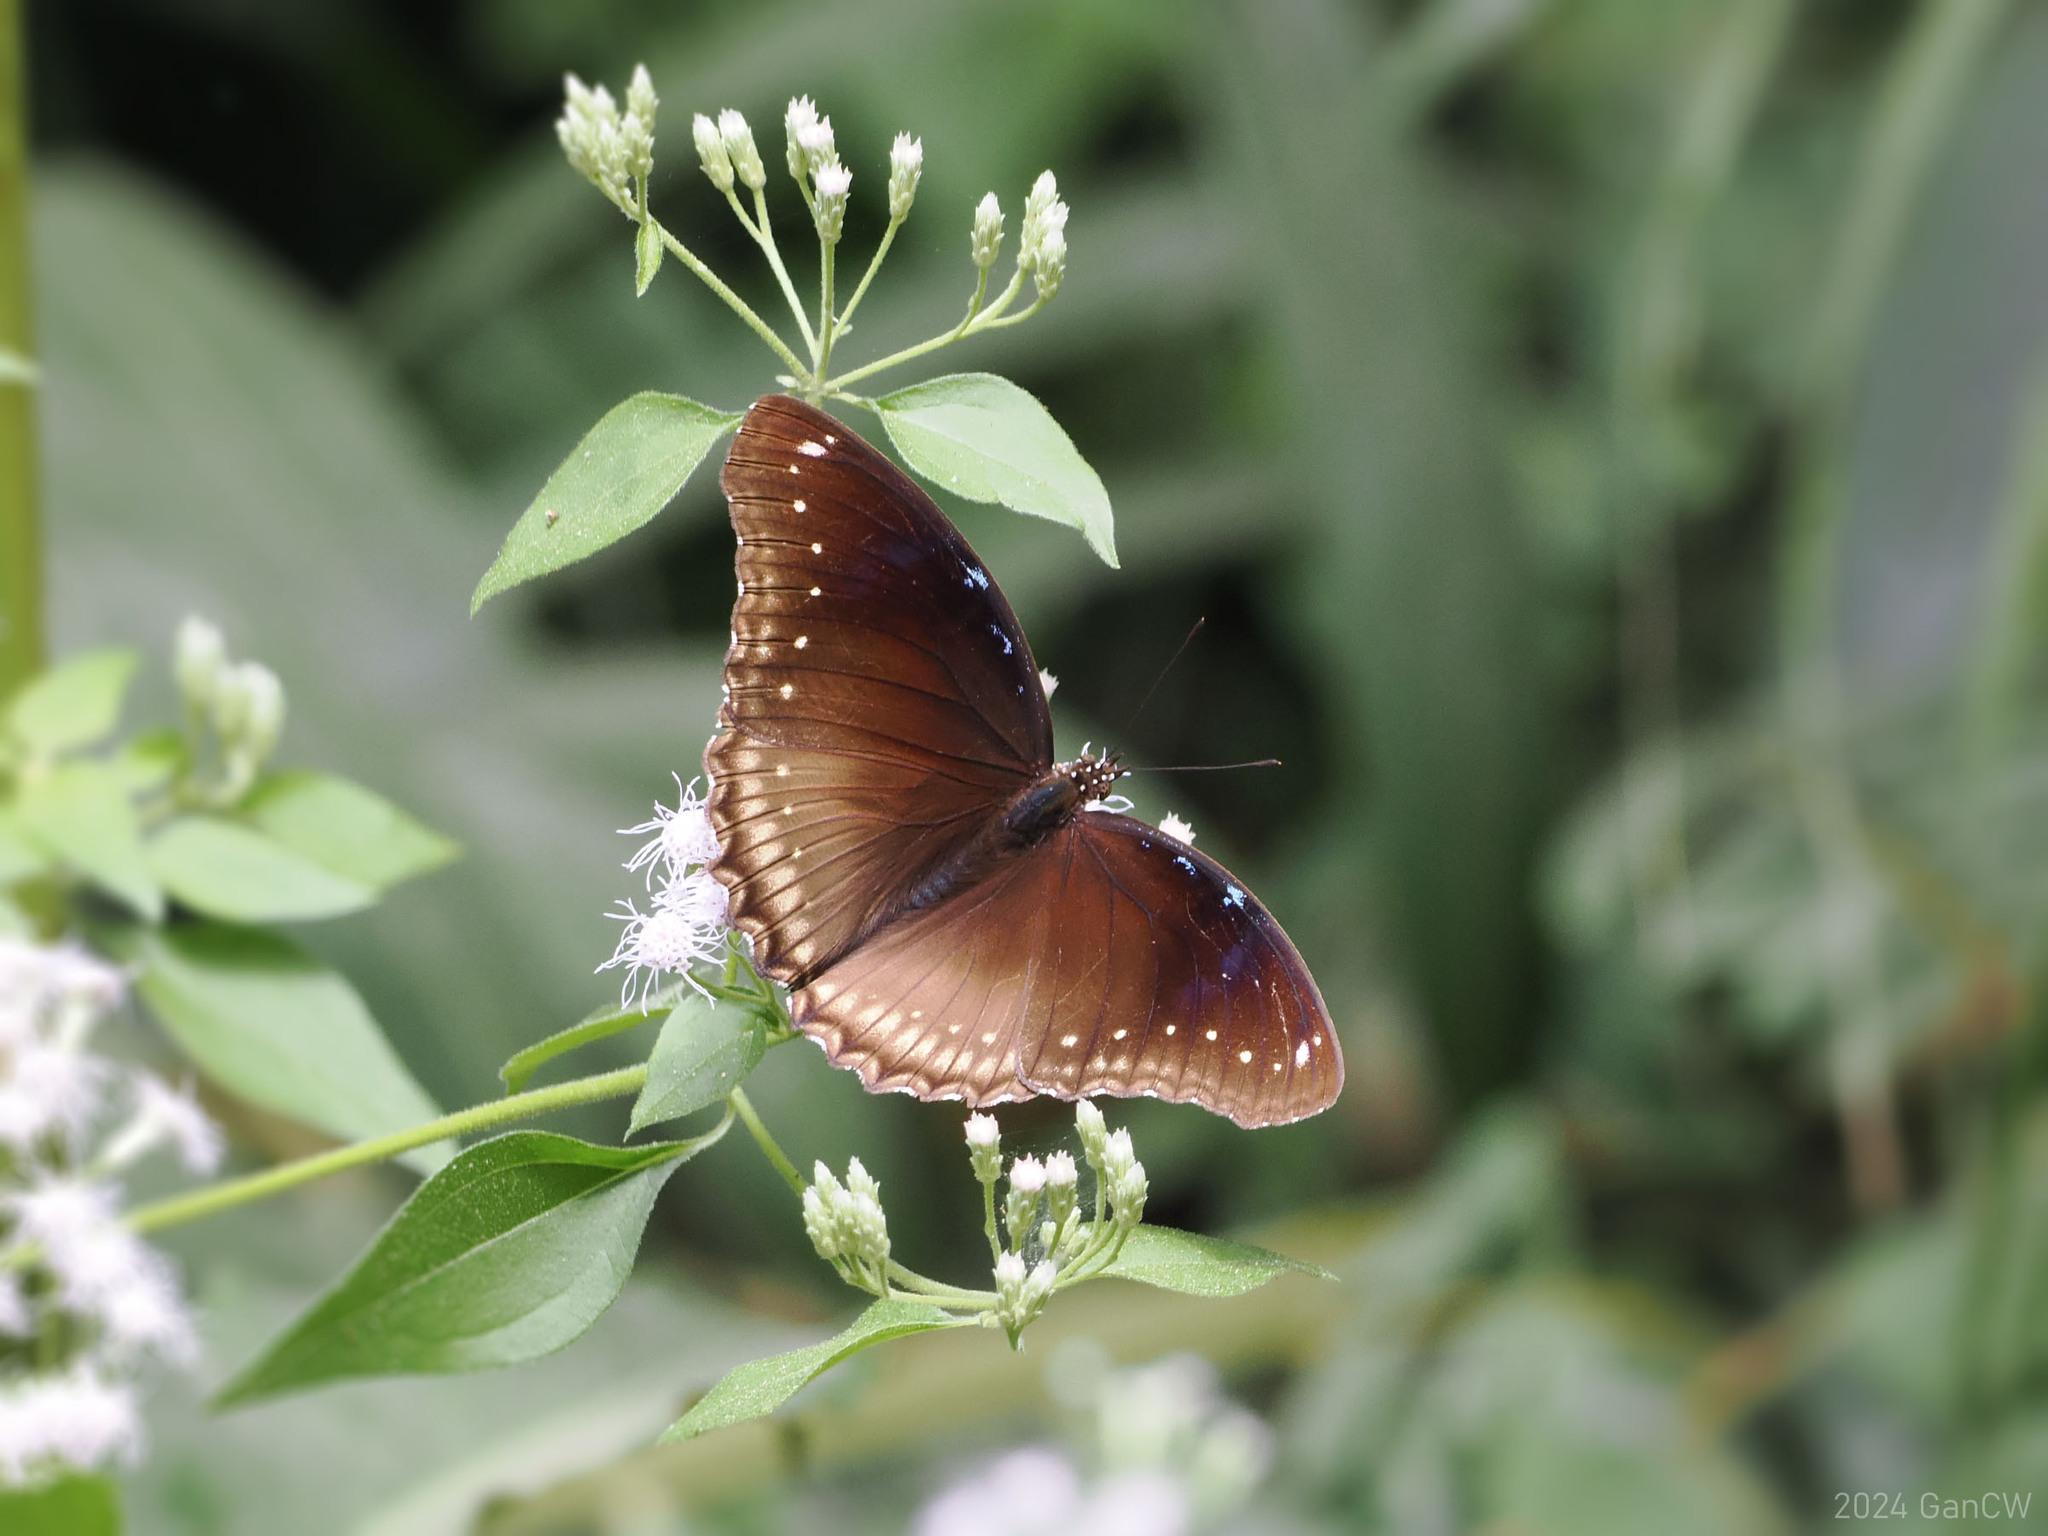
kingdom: Animalia
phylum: Arthropoda
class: Insecta
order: Lepidoptera
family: Nymphalidae
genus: Hypolimnas
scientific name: Hypolimnas bolina
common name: Great eggfly
